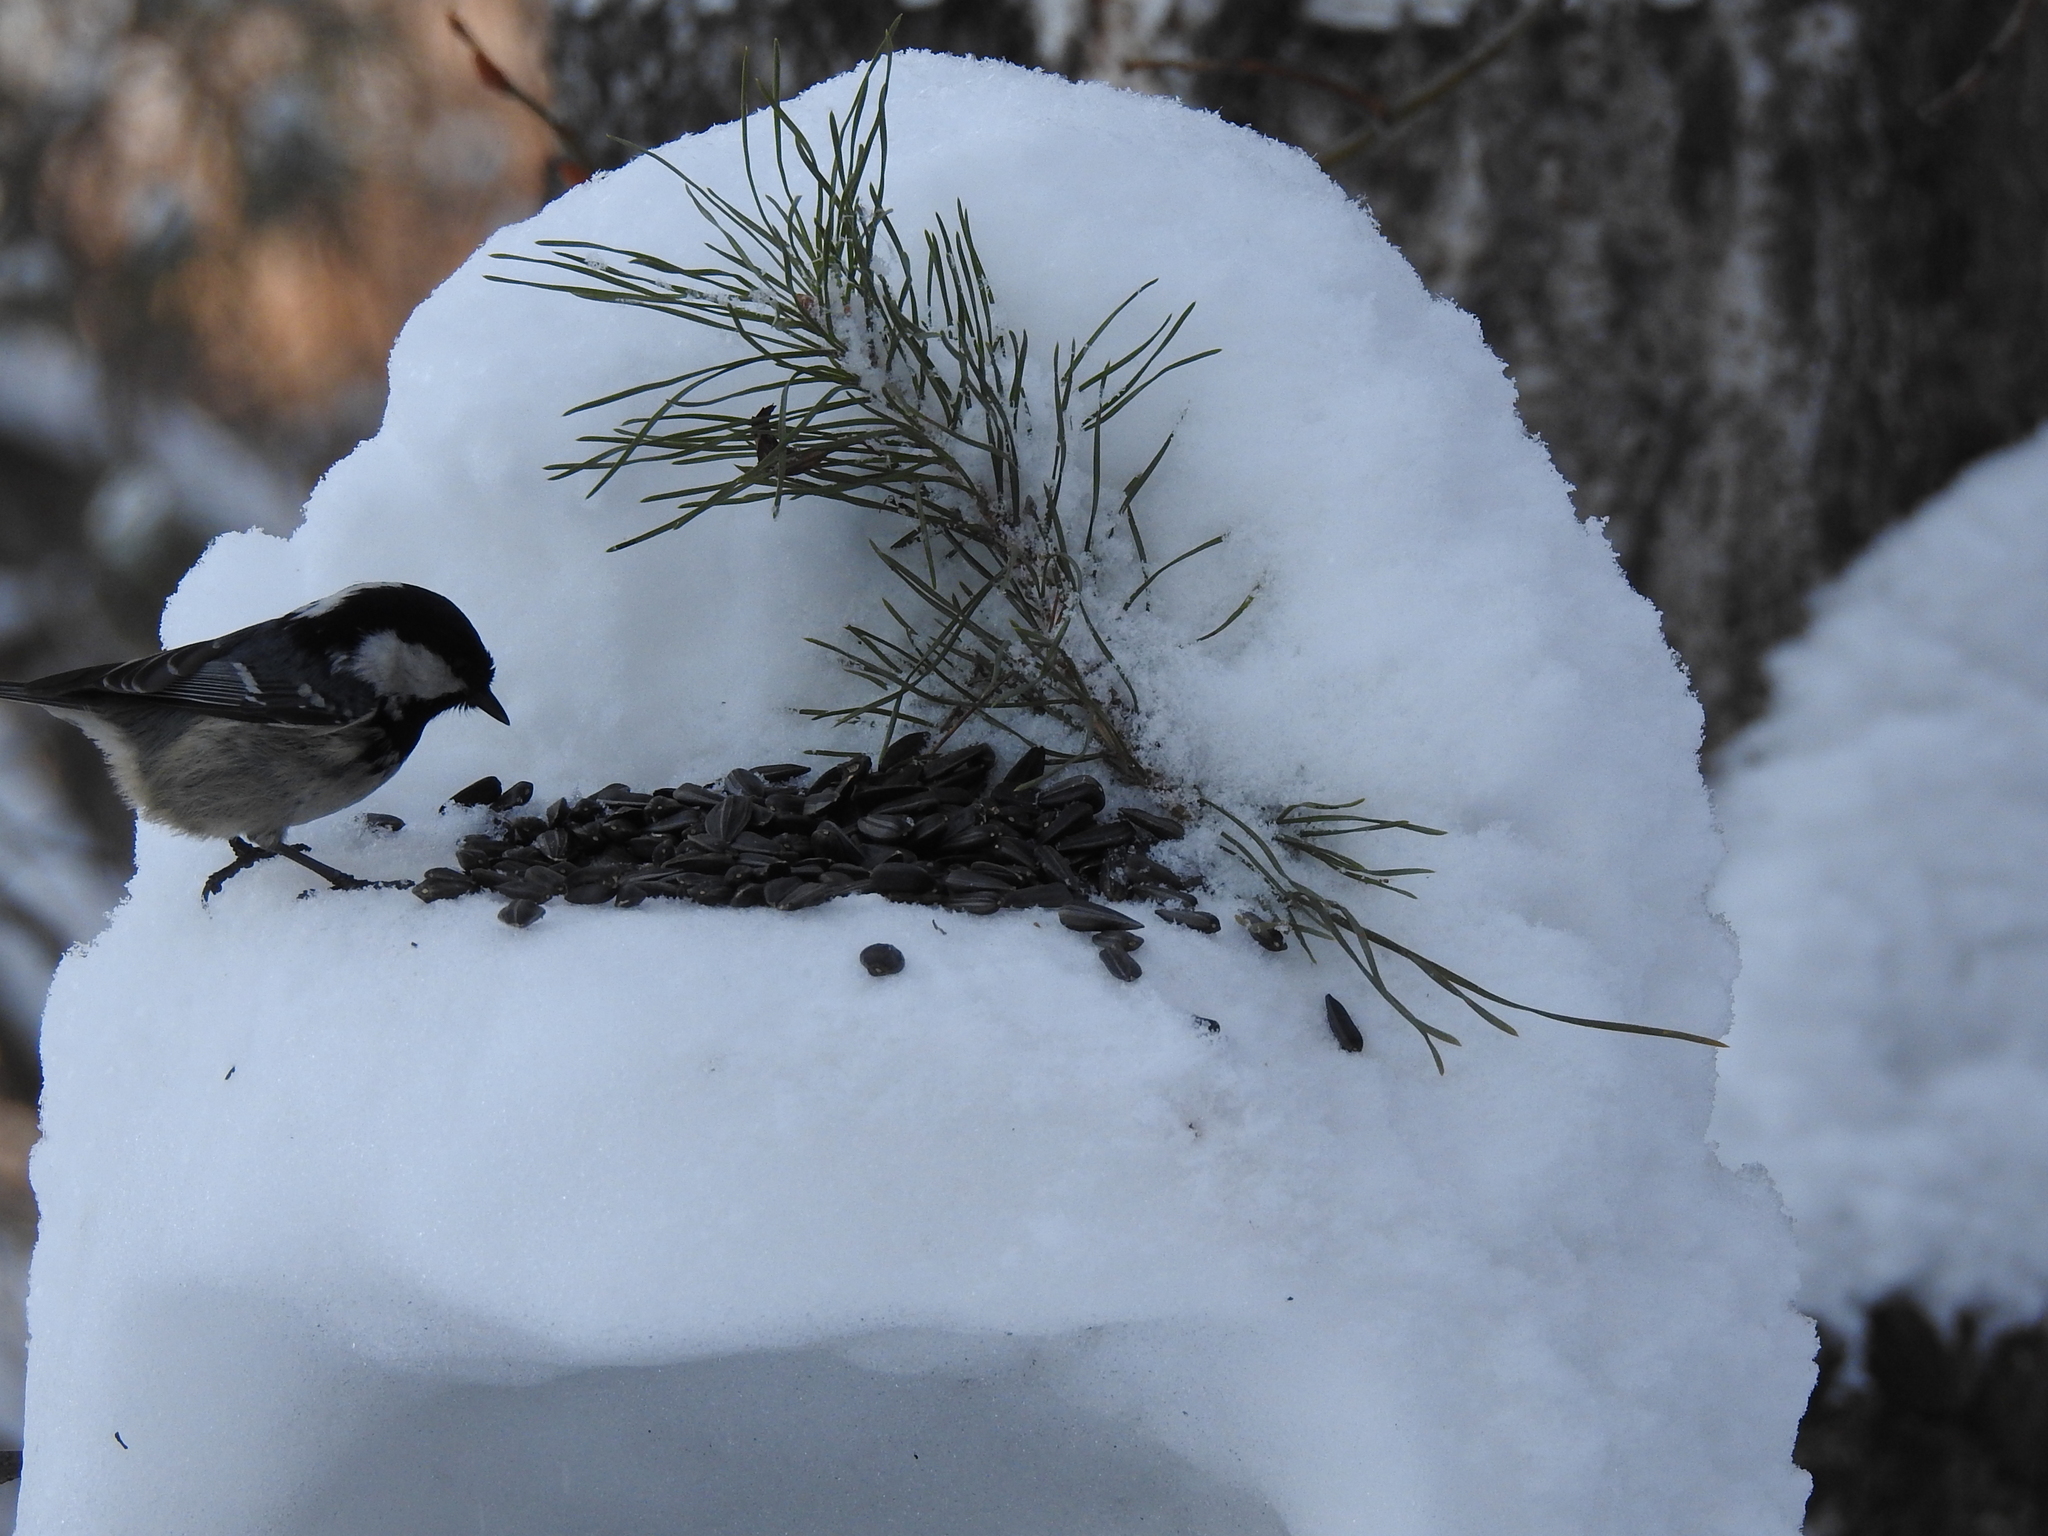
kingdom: Animalia
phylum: Chordata
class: Aves
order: Passeriformes
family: Paridae
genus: Periparus
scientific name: Periparus ater
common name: Coal tit
